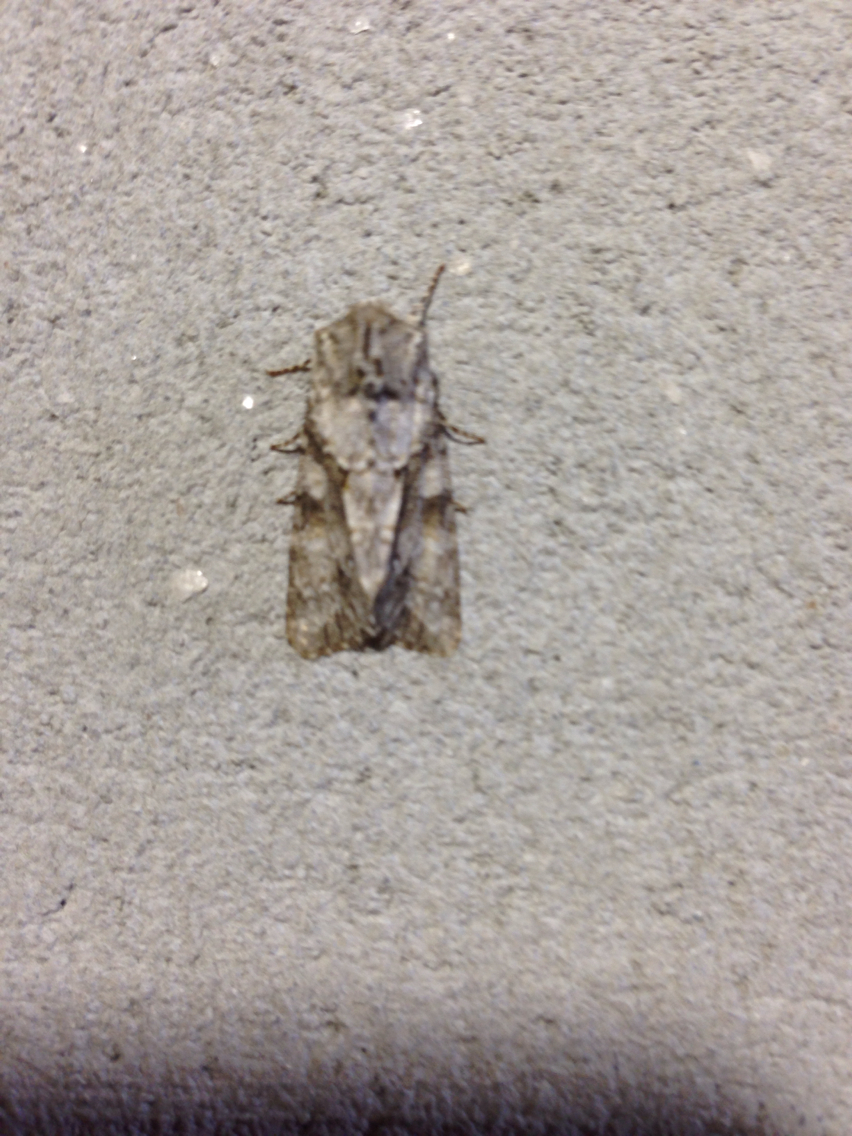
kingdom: Animalia
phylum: Arthropoda
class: Insecta
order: Lepidoptera
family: Noctuidae
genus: Achatia
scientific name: Achatia distincta
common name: Distinct quaker
